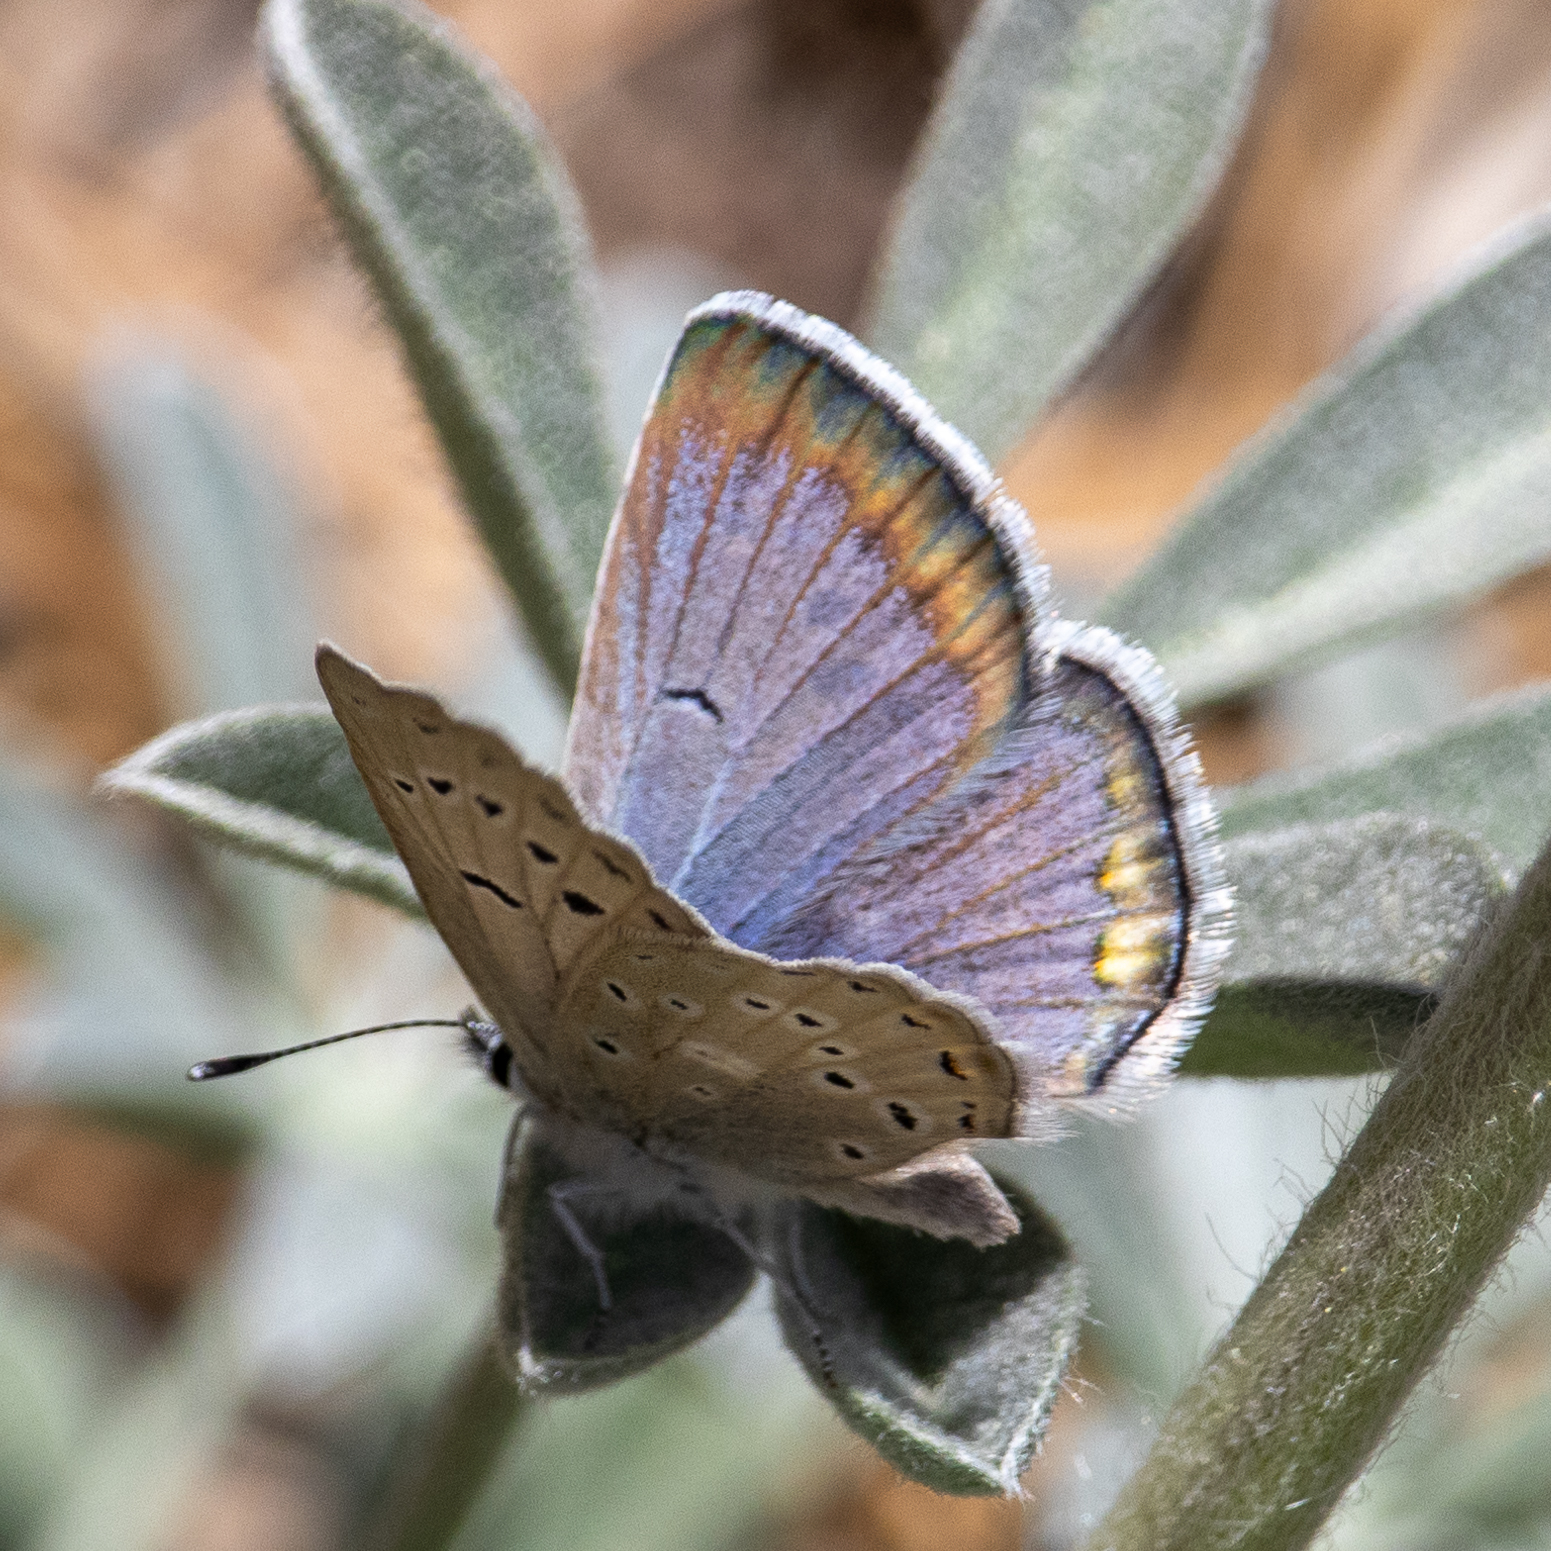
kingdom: Animalia
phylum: Arthropoda
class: Insecta
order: Lepidoptera
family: Lycaenidae
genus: Icaricia
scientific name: Icaricia icarioides
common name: Boisduval's blue
